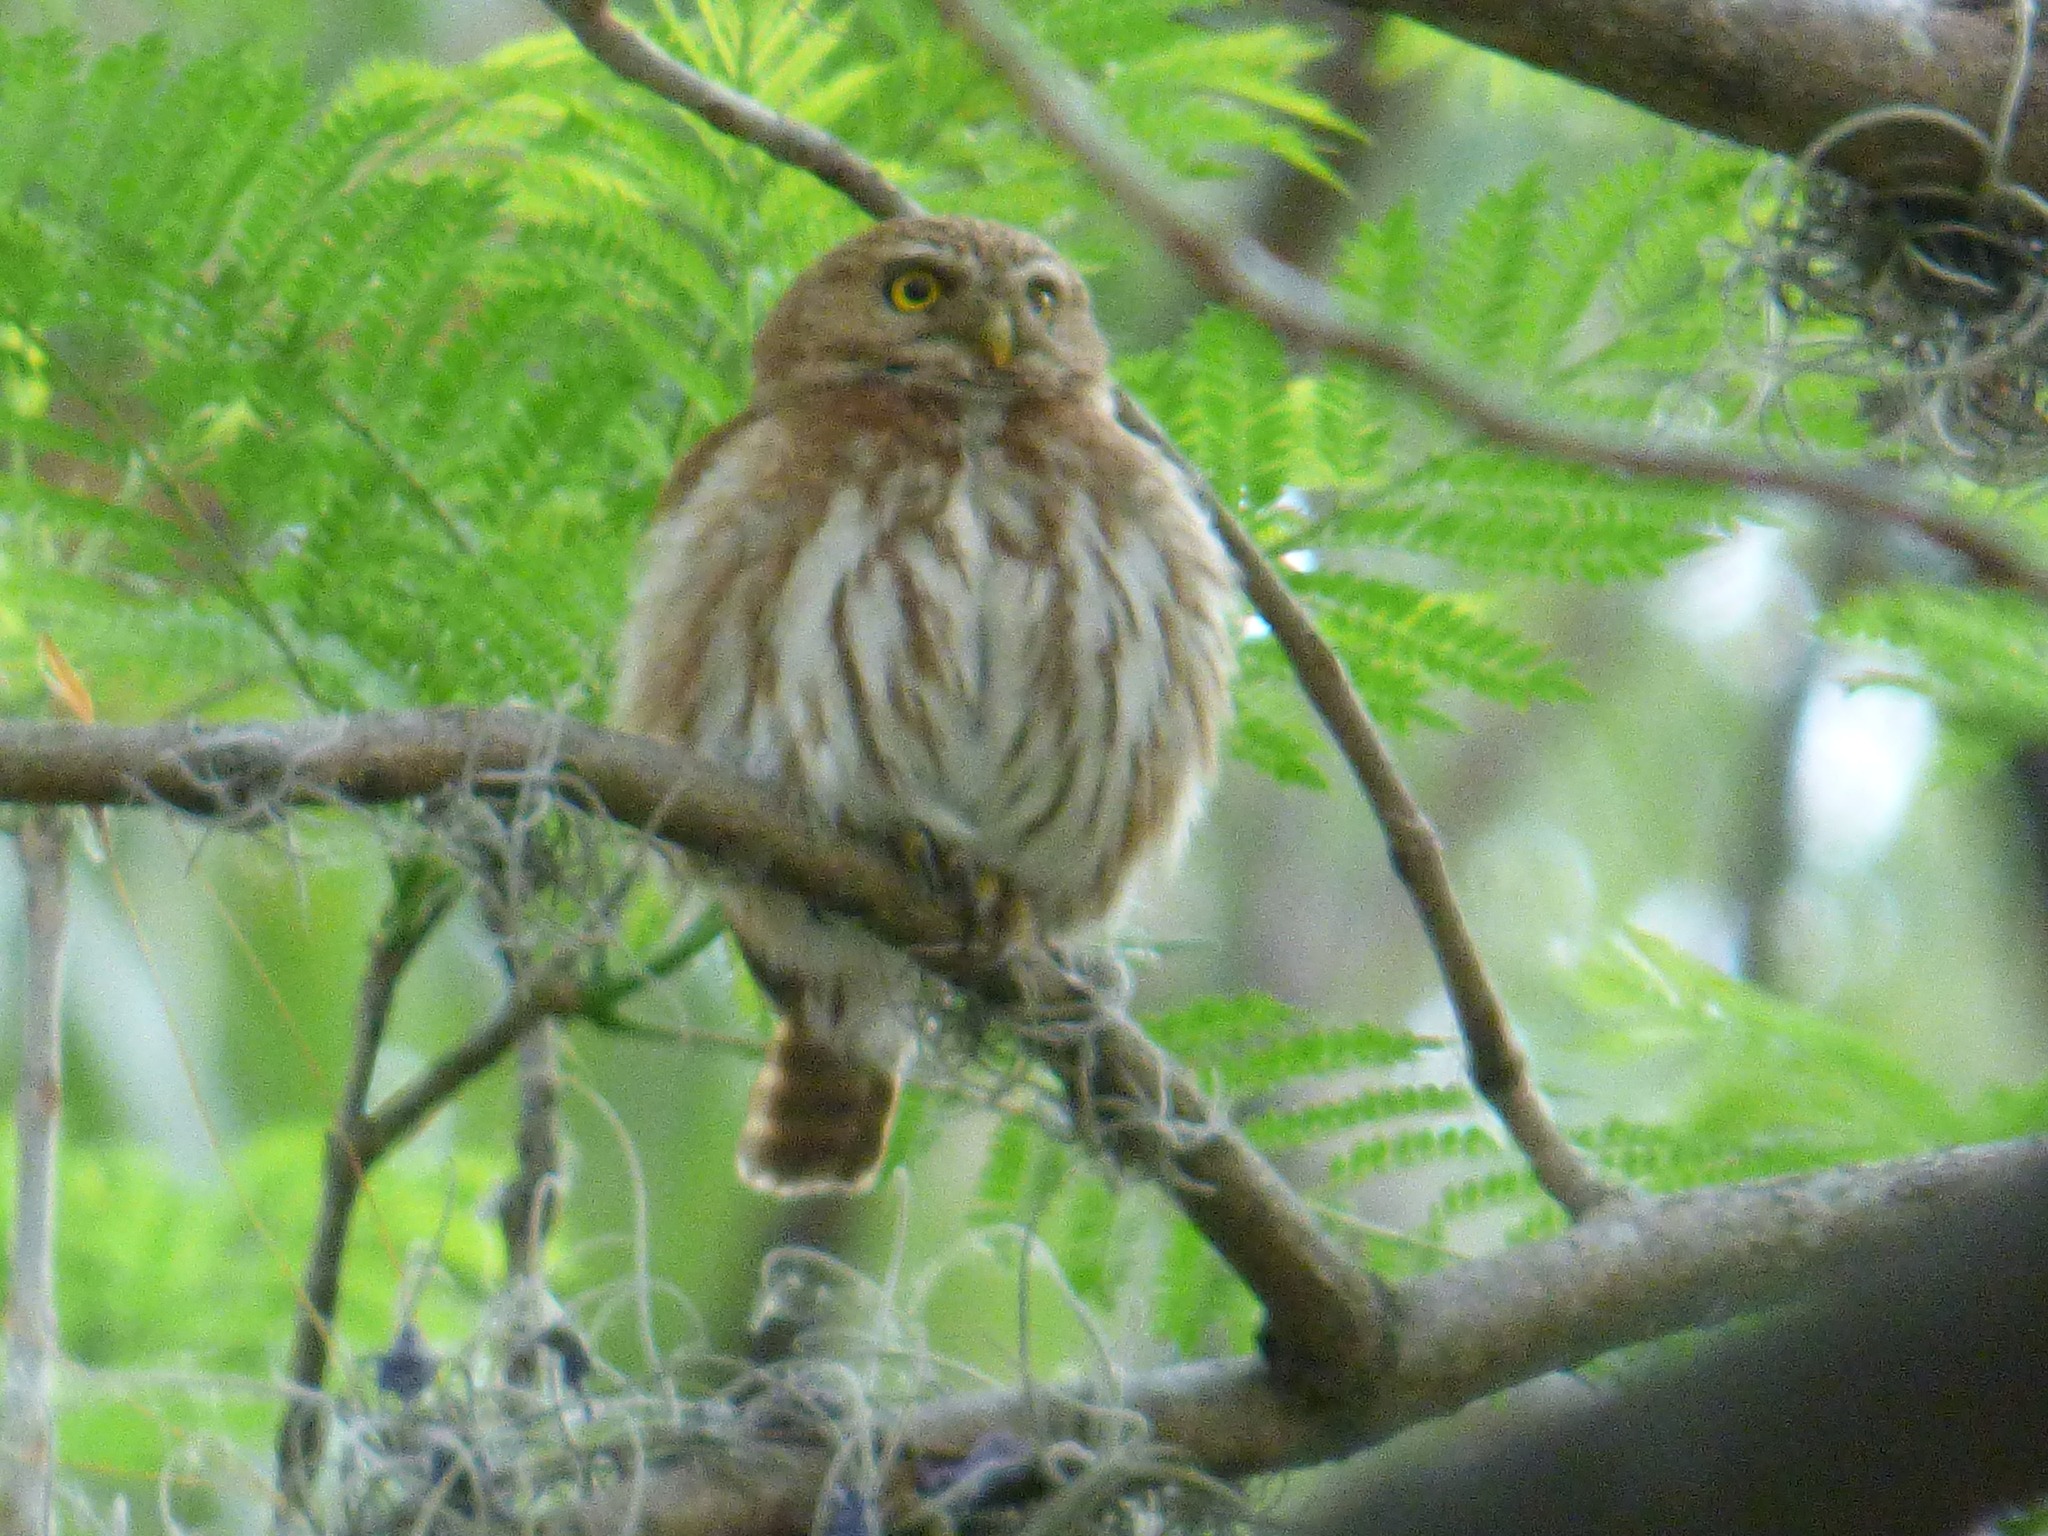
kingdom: Animalia
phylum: Chordata
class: Aves
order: Strigiformes
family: Strigidae
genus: Glaucidium
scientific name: Glaucidium brasilianum
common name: Ferruginous pygmy-owl
